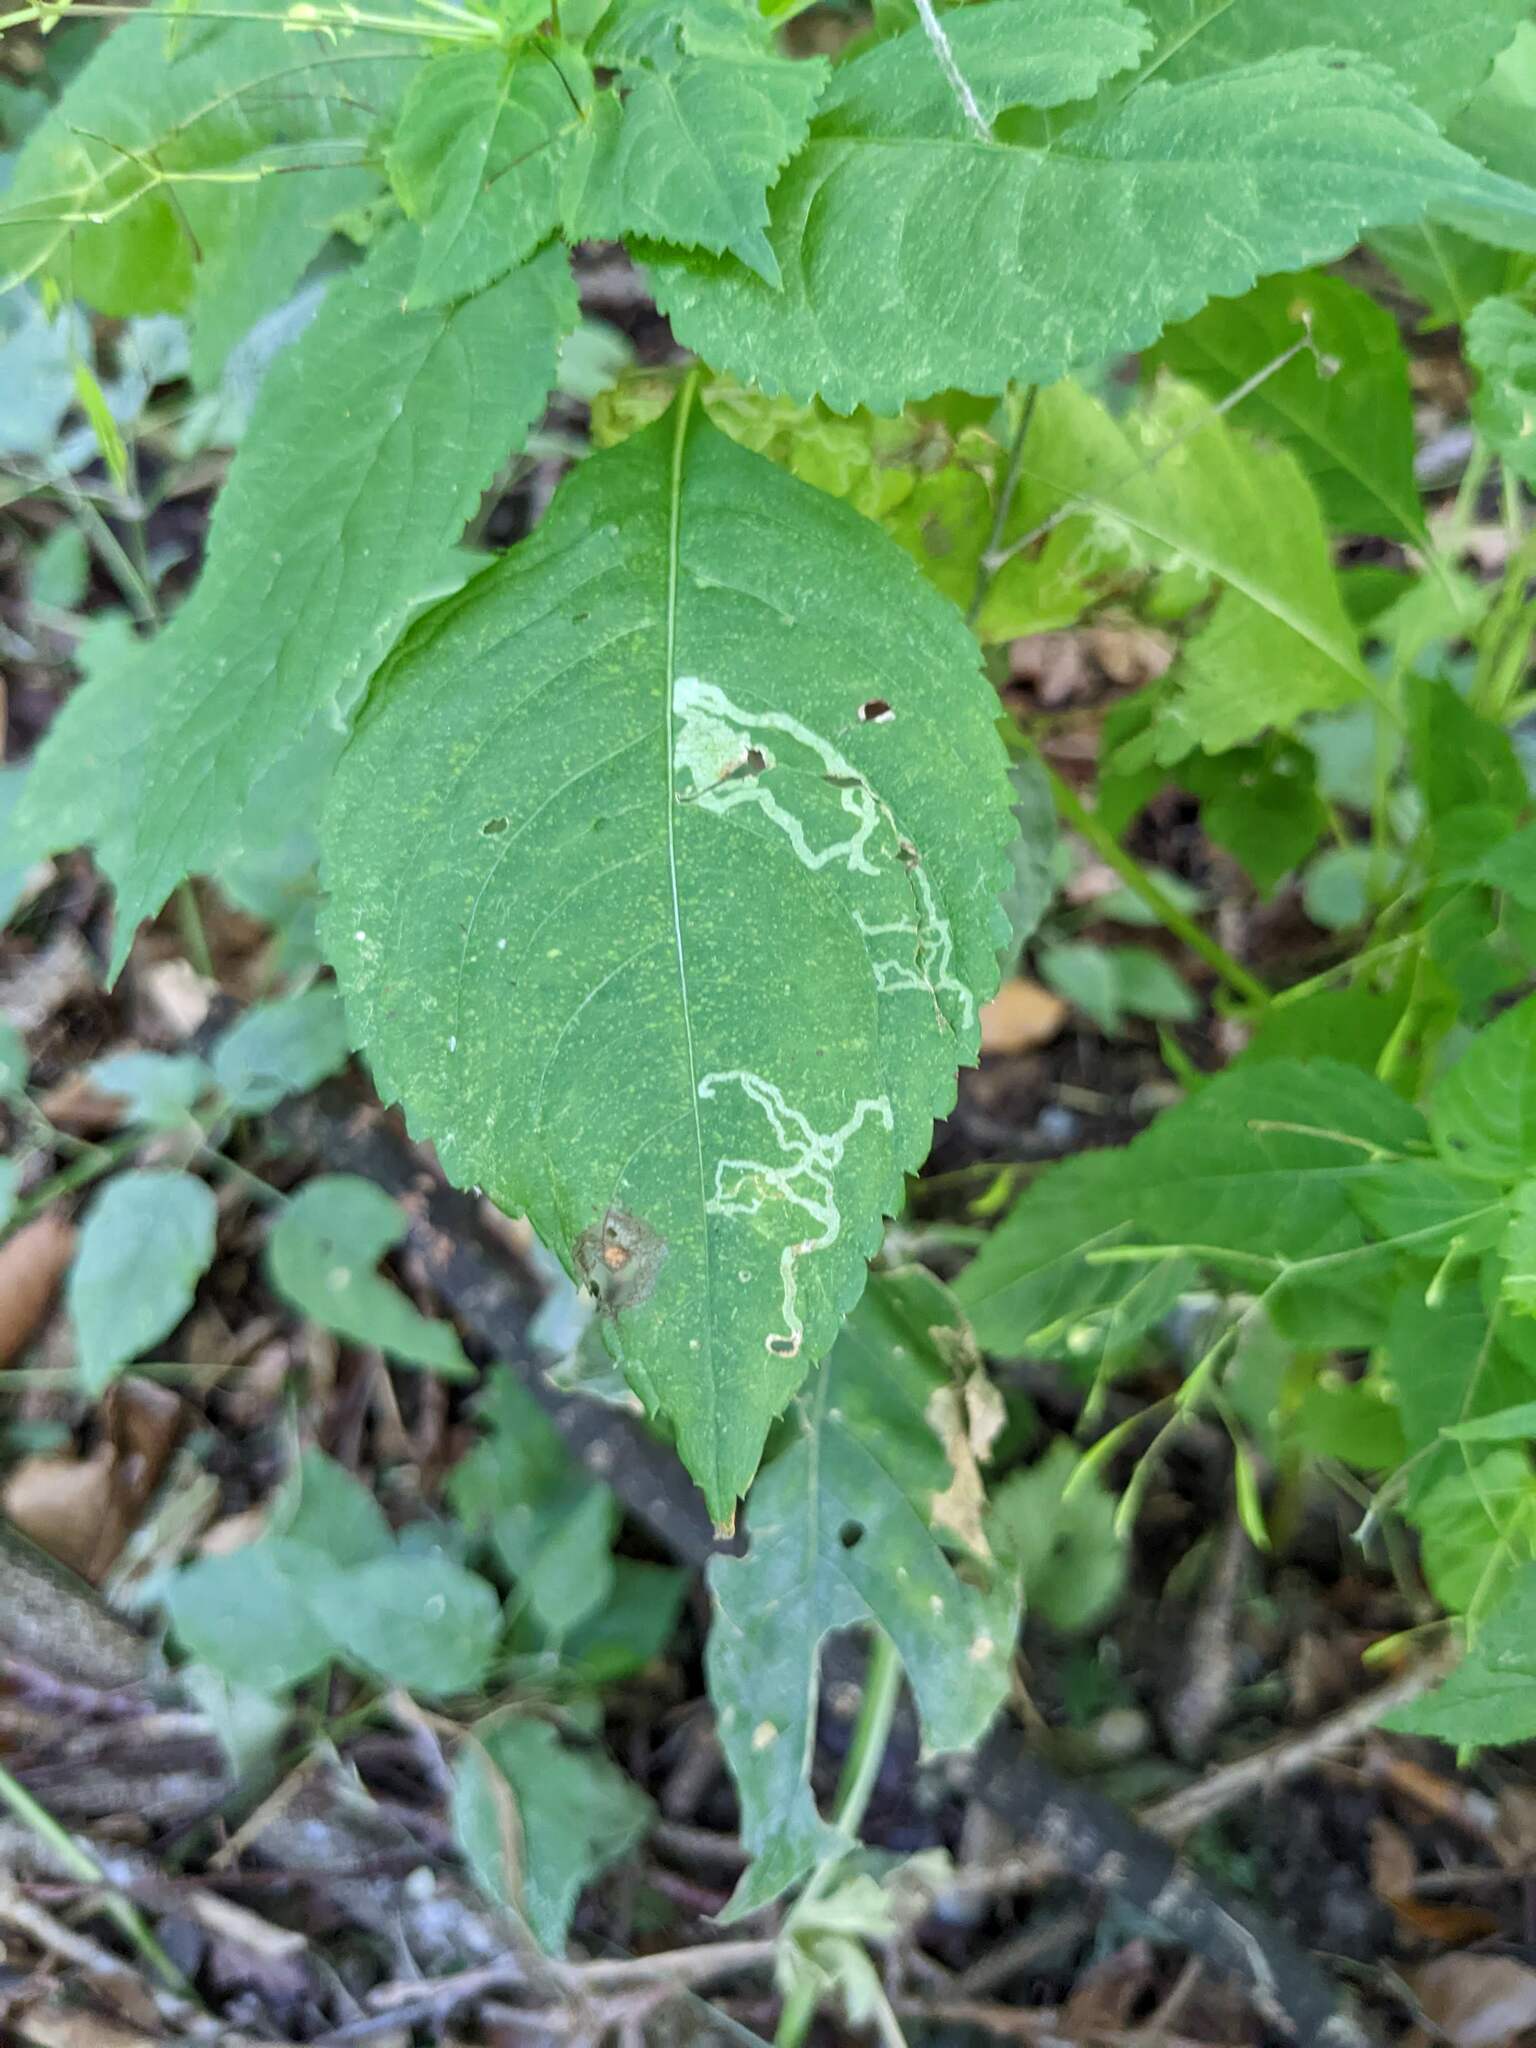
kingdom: Animalia
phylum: Arthropoda
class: Insecta
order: Diptera
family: Agromyzidae
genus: Phytoliriomyza
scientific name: Phytoliriomyza melampyga
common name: Jewelweed leaf-miner fly
